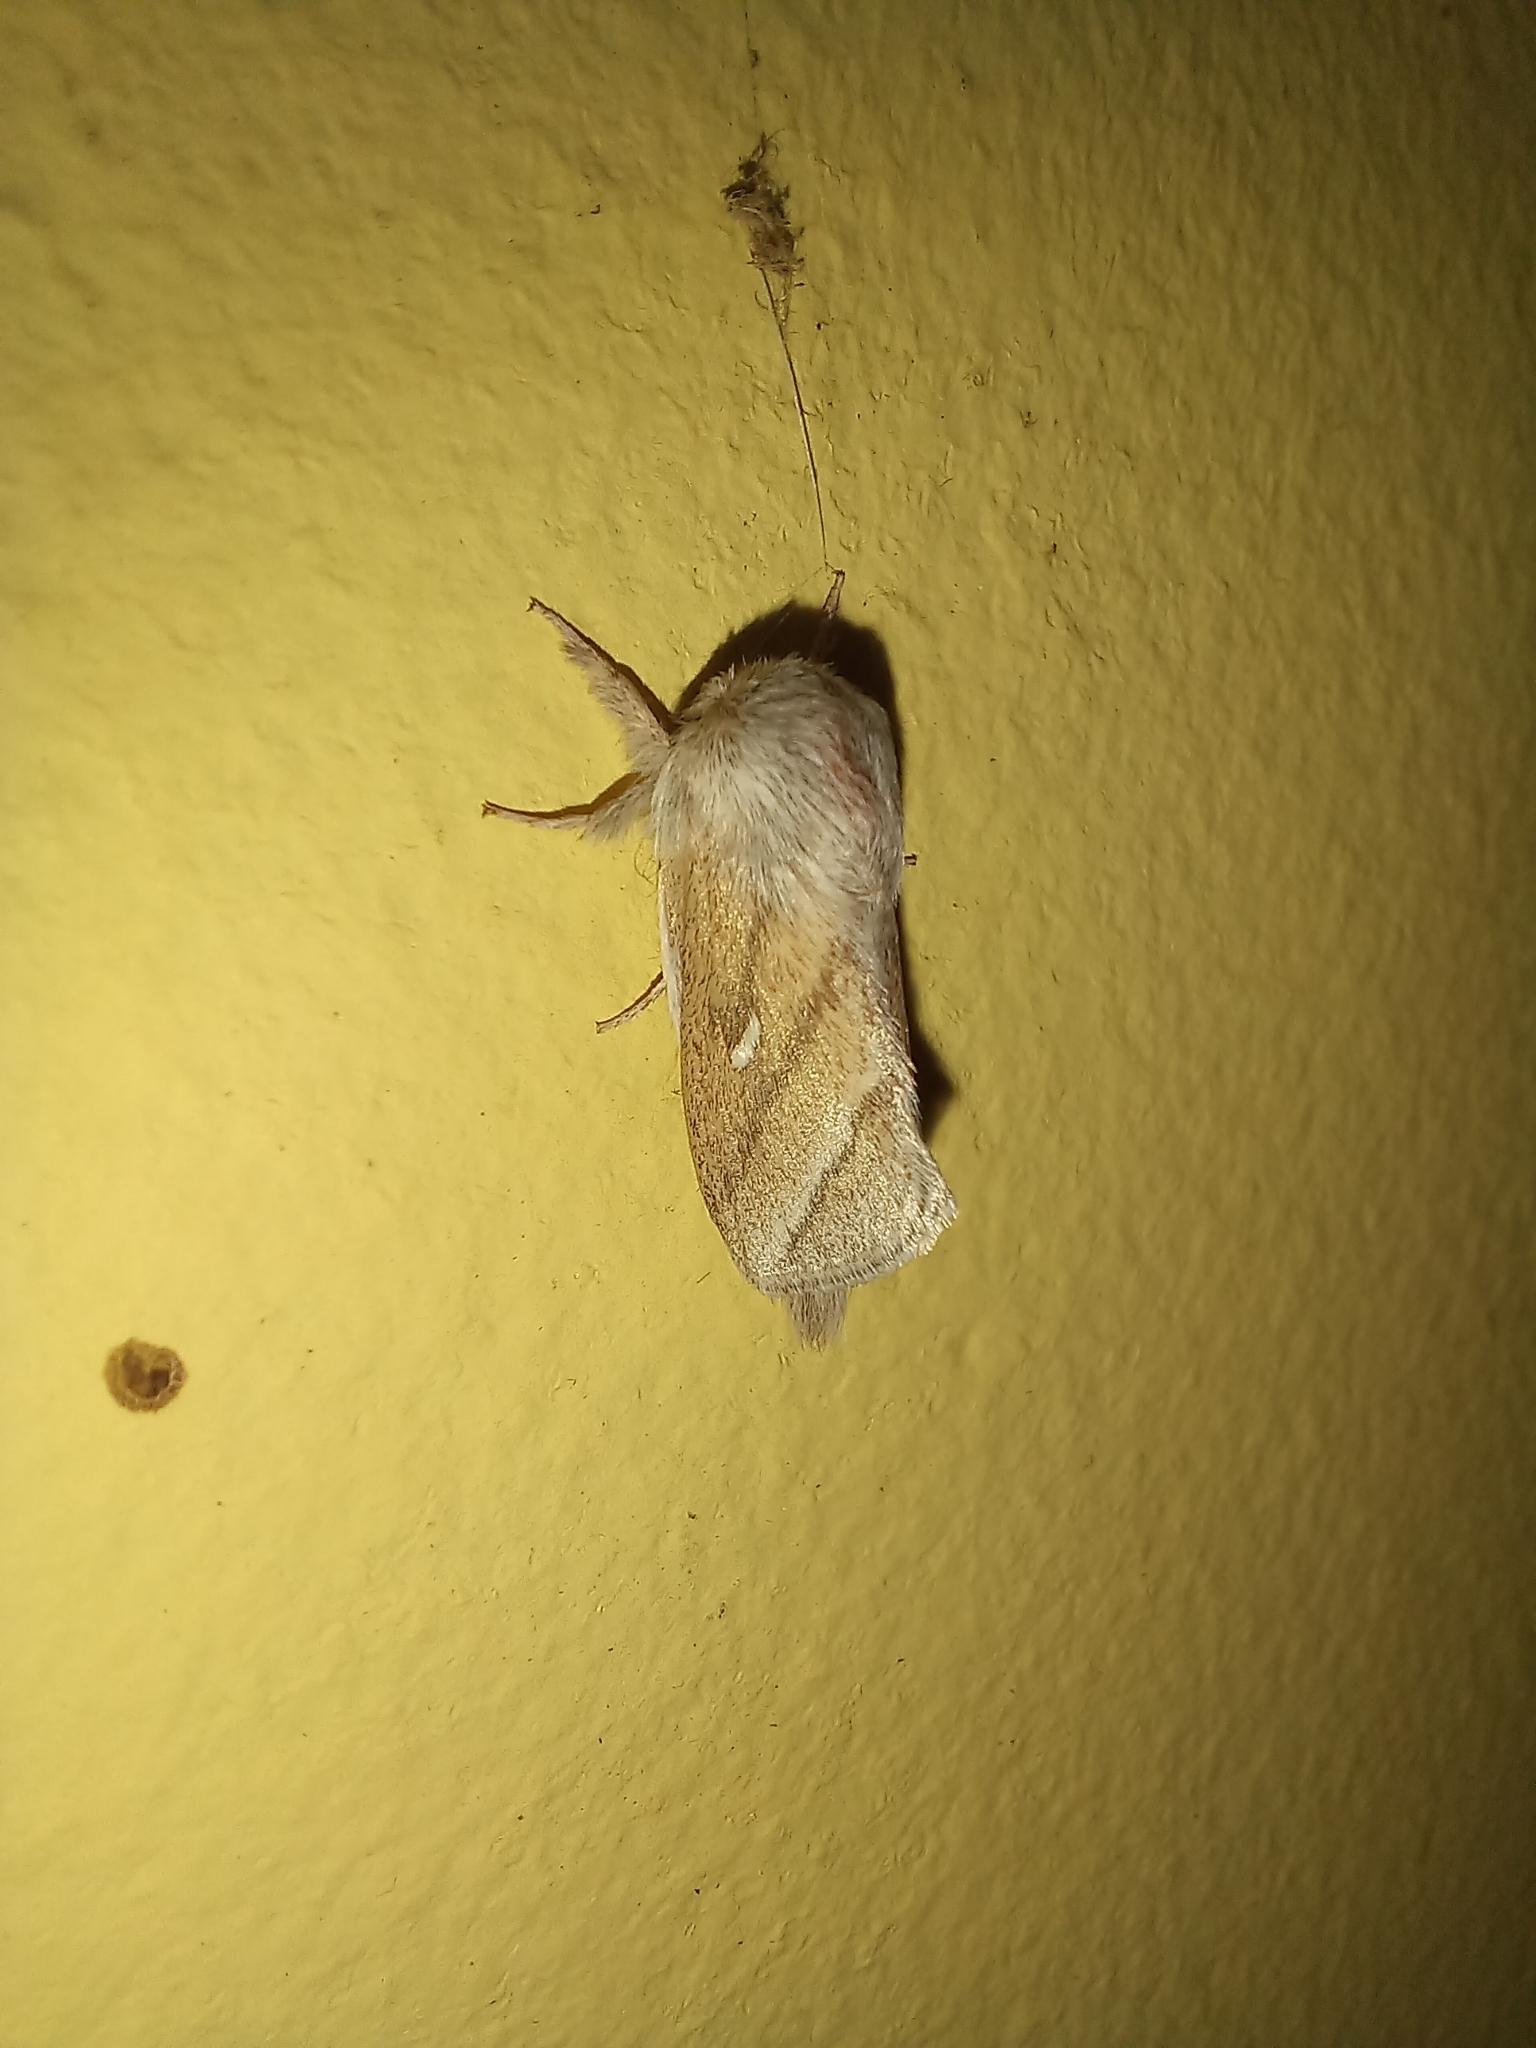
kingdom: Animalia
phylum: Arthropoda
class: Insecta
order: Lepidoptera
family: Lasiocampidae
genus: Sena
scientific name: Sena prompta
